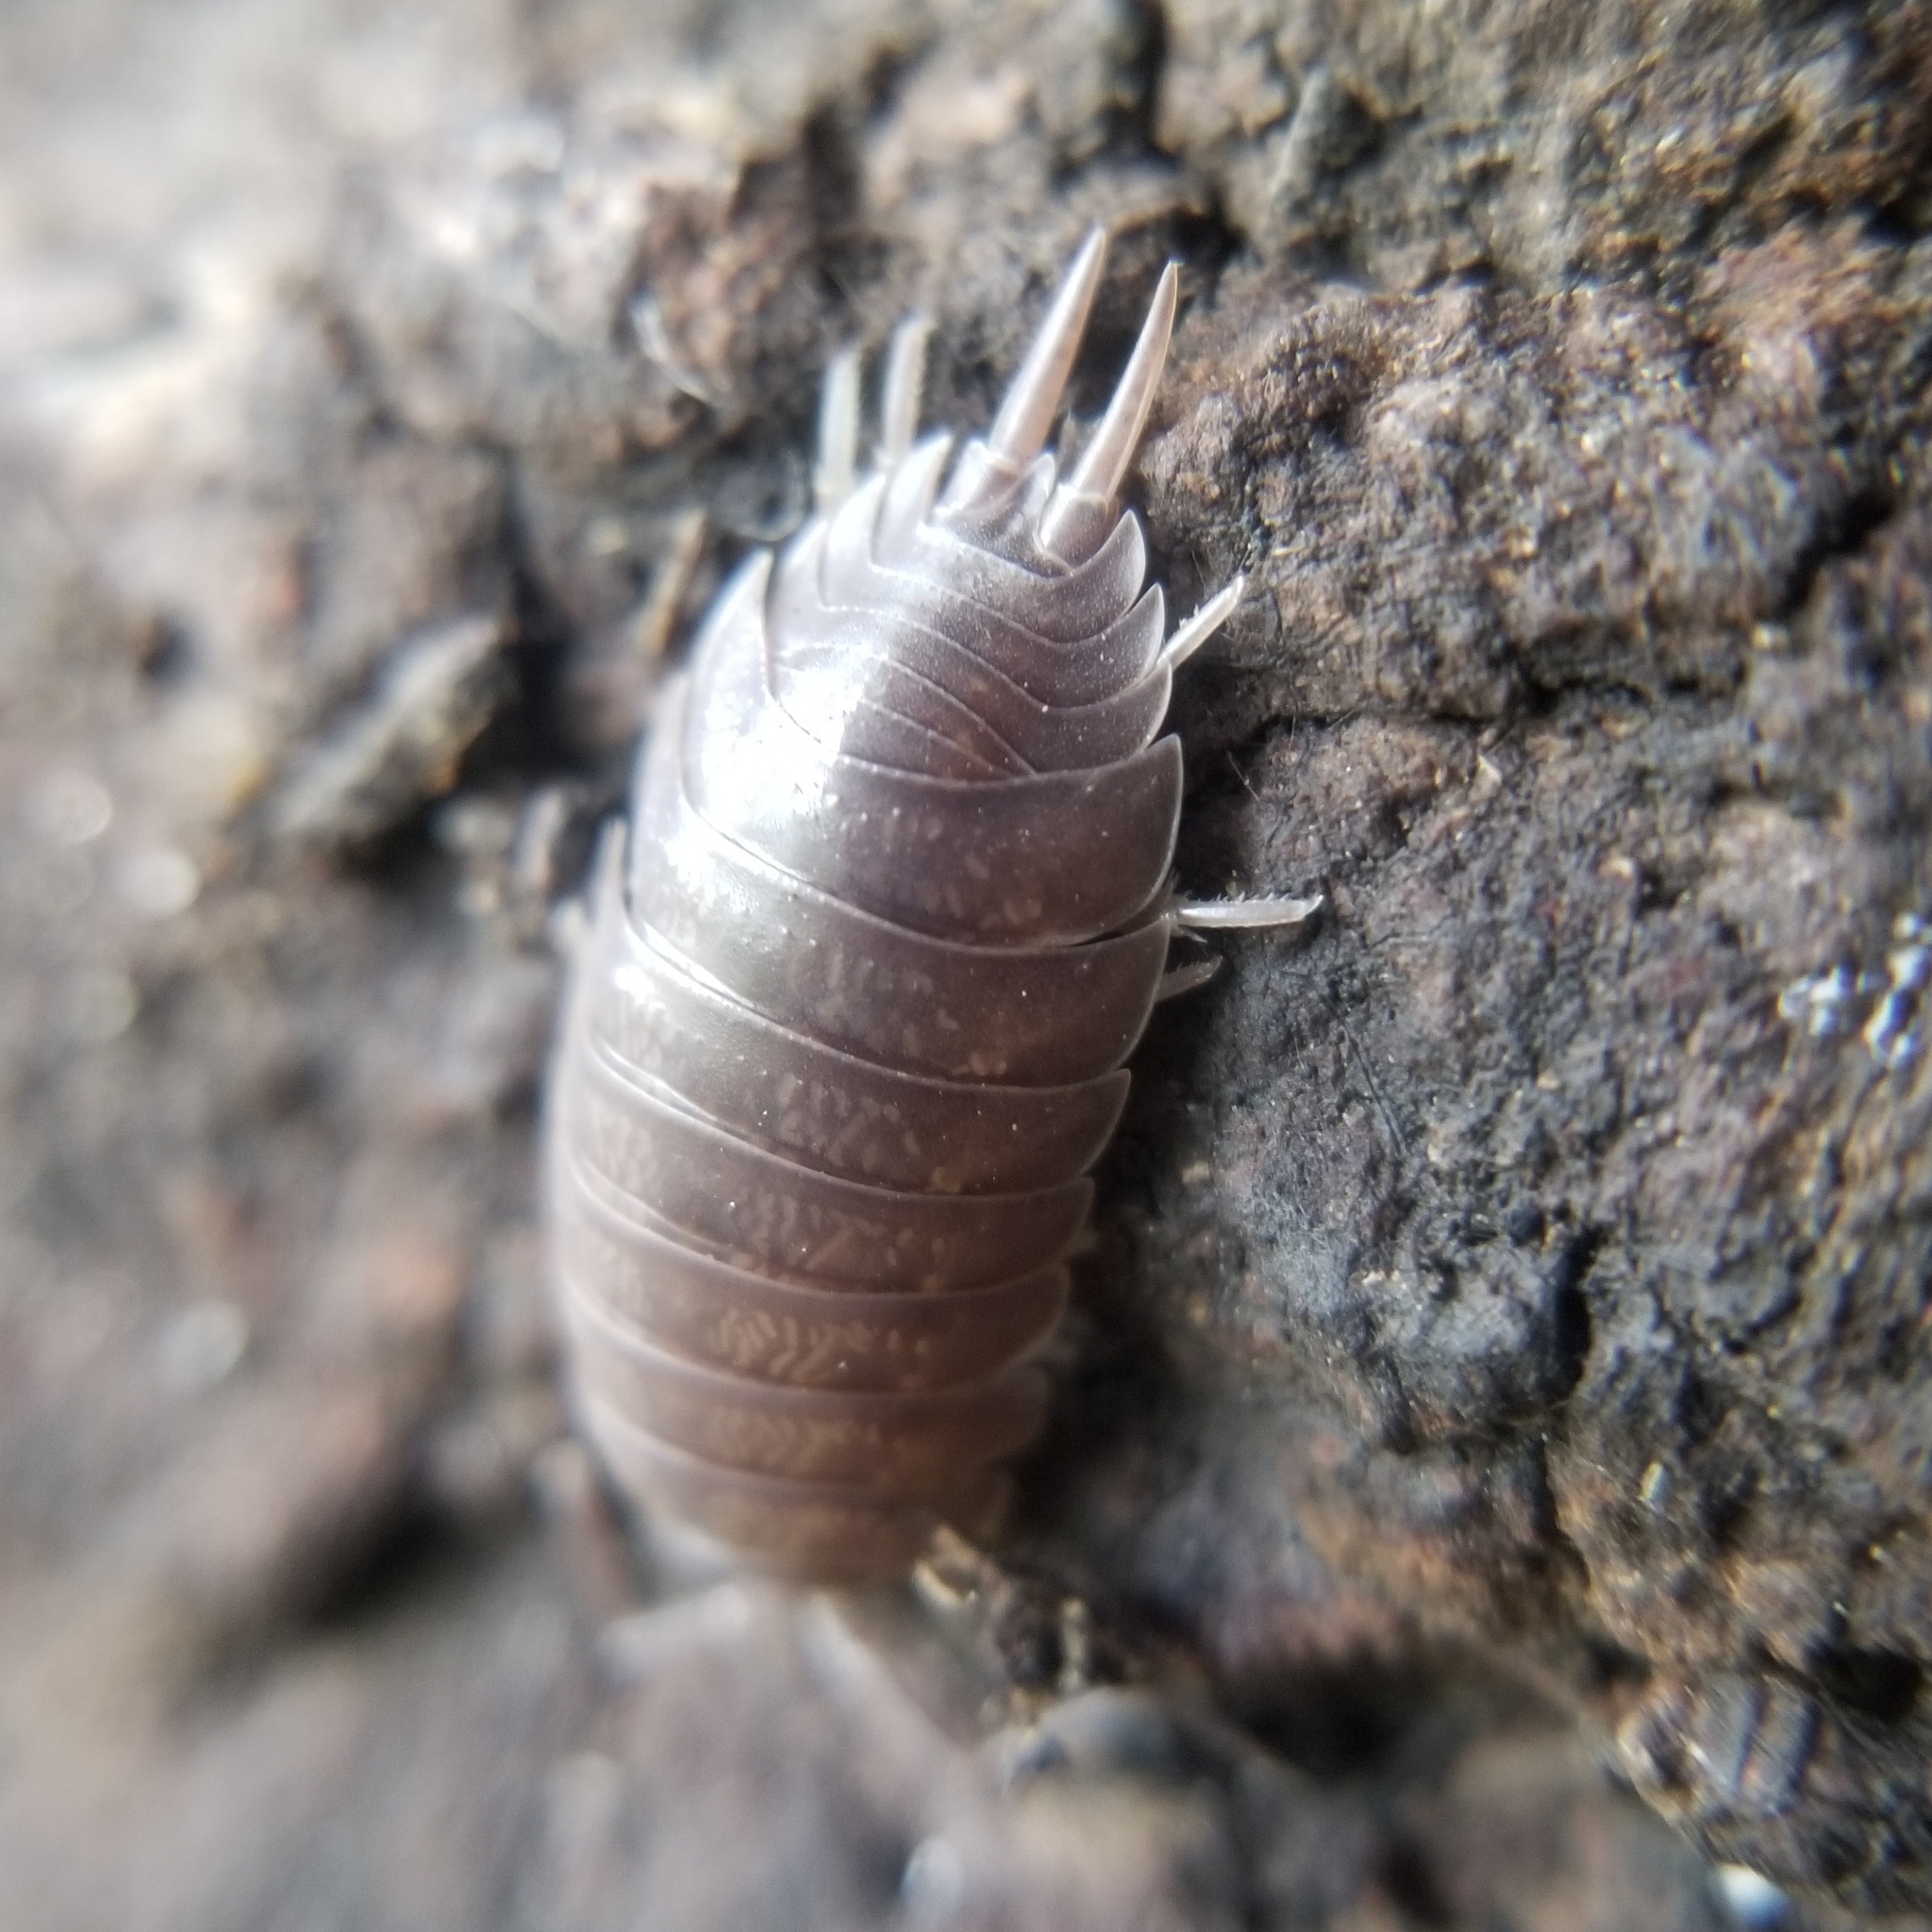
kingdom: Animalia
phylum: Arthropoda
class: Malacostraca
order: Isopoda
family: Porcellionidae
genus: Porcellio
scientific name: Porcellio laevis
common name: Swift woodlouse
